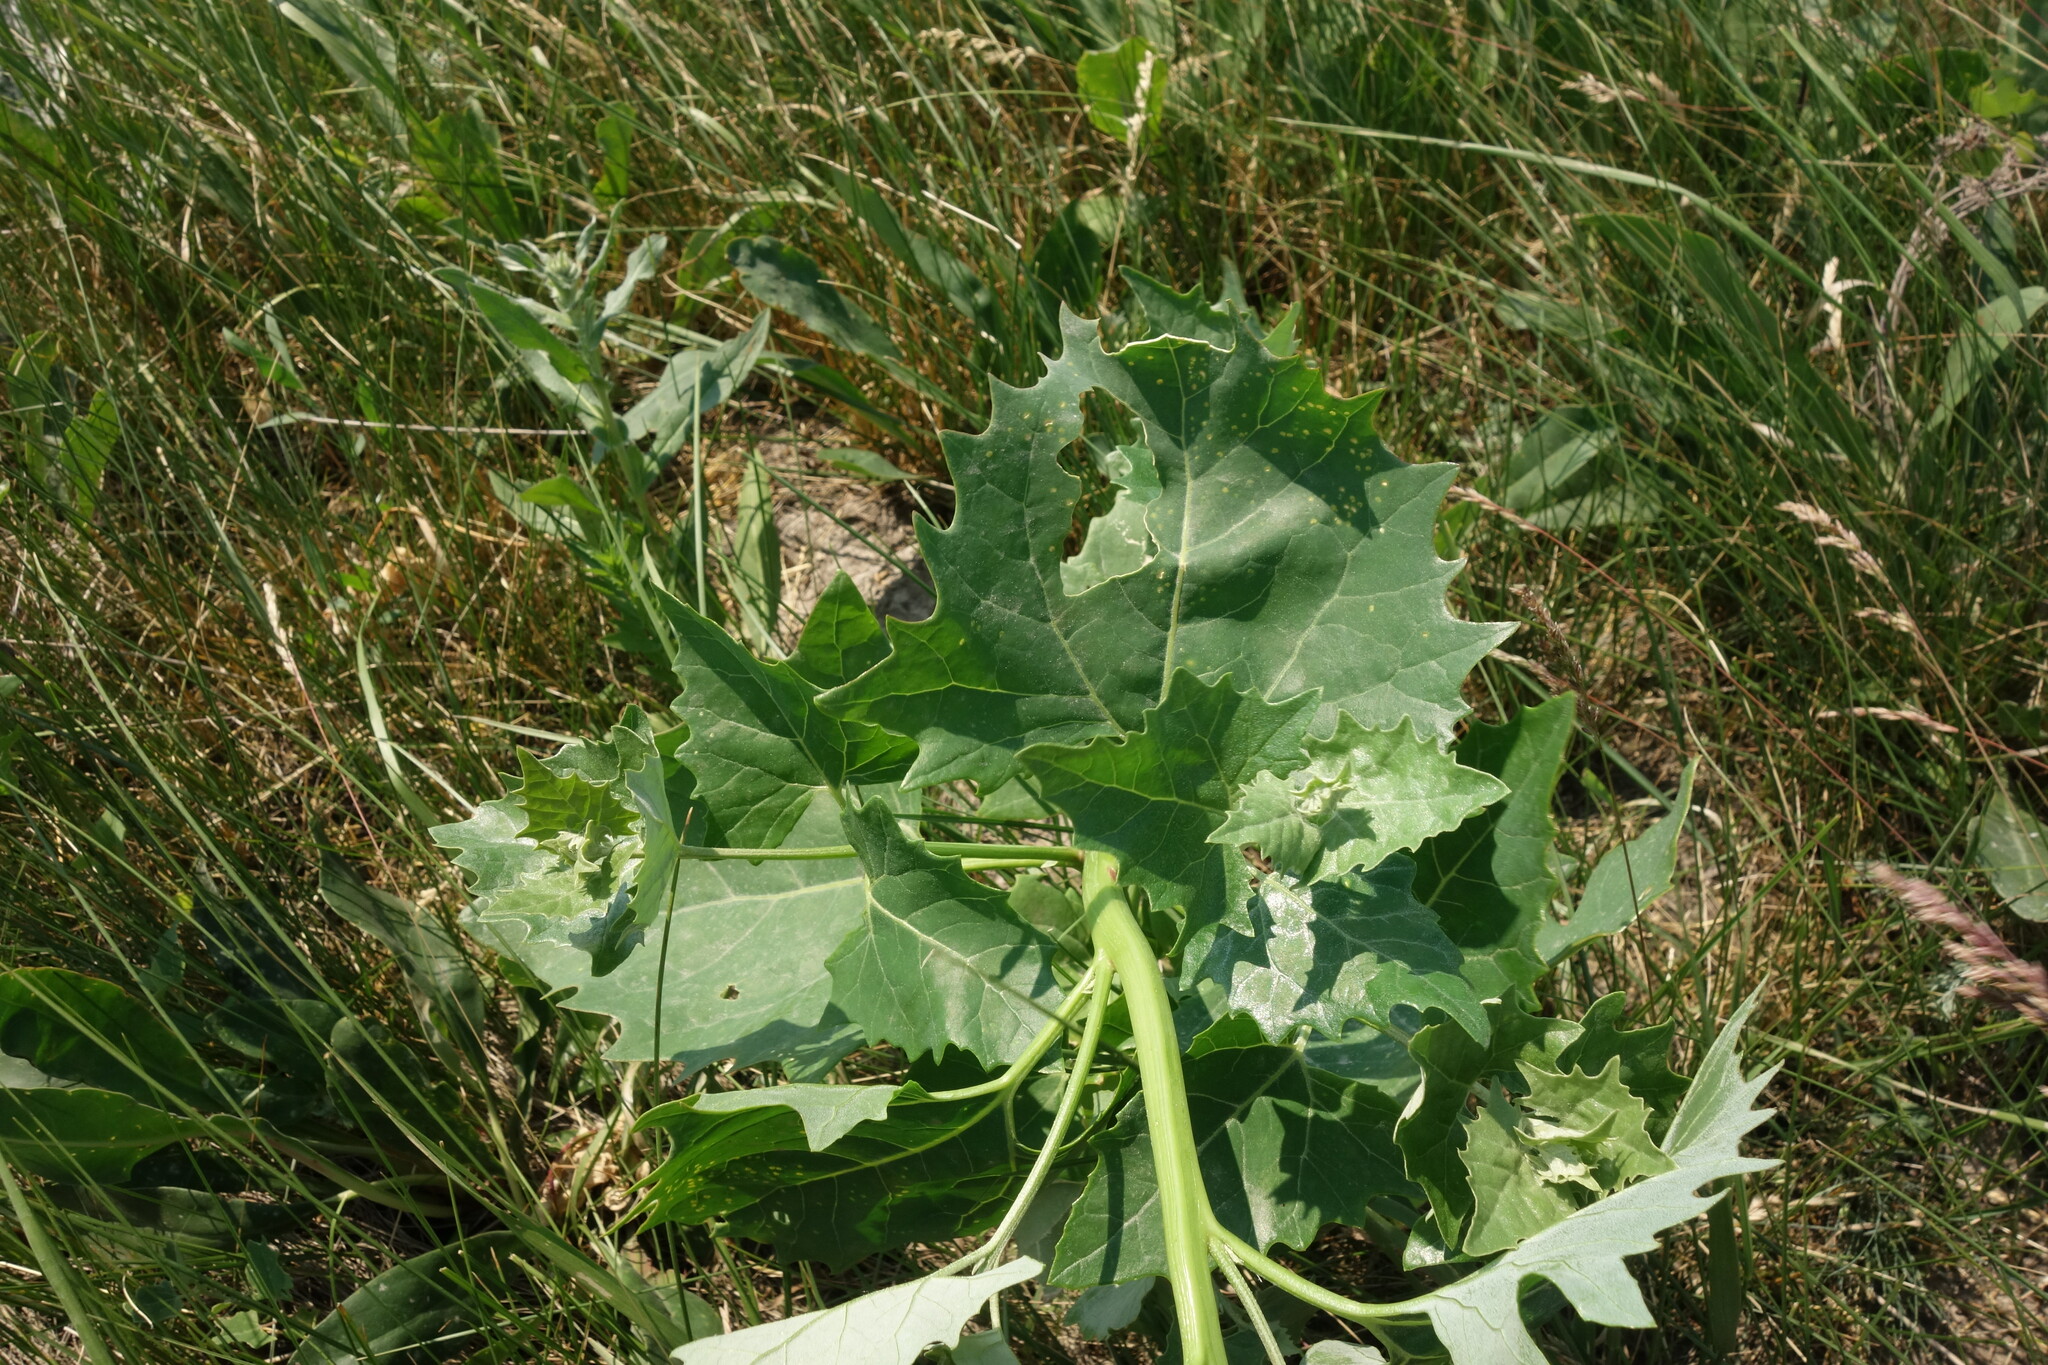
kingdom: Plantae
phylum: Tracheophyta
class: Magnoliopsida
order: Caryophyllales
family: Amaranthaceae
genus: Atriplex
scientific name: Atriplex sagittata
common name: Purple orache
